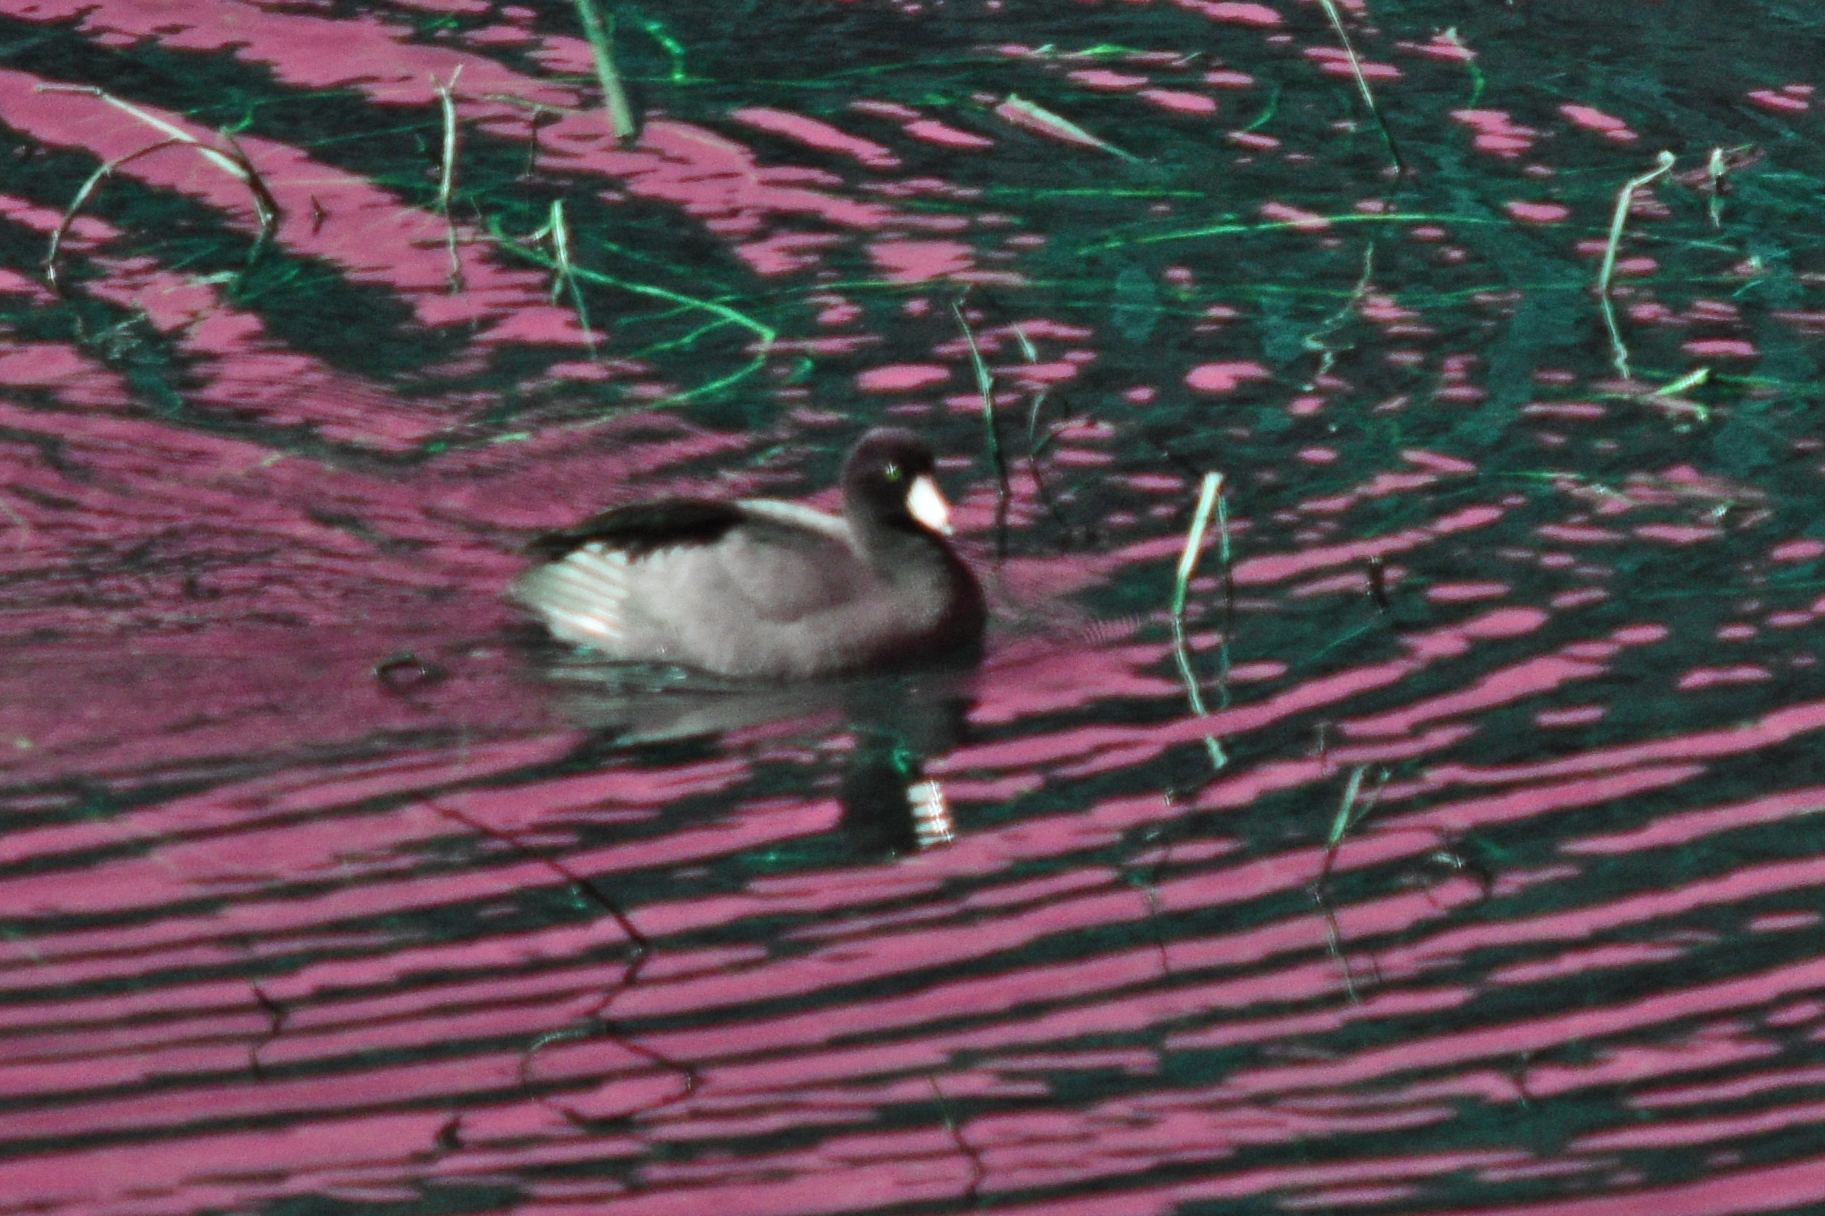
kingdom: Animalia
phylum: Chordata
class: Aves
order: Gruiformes
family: Rallidae
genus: Fulica
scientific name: Fulica americana
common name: American coot
